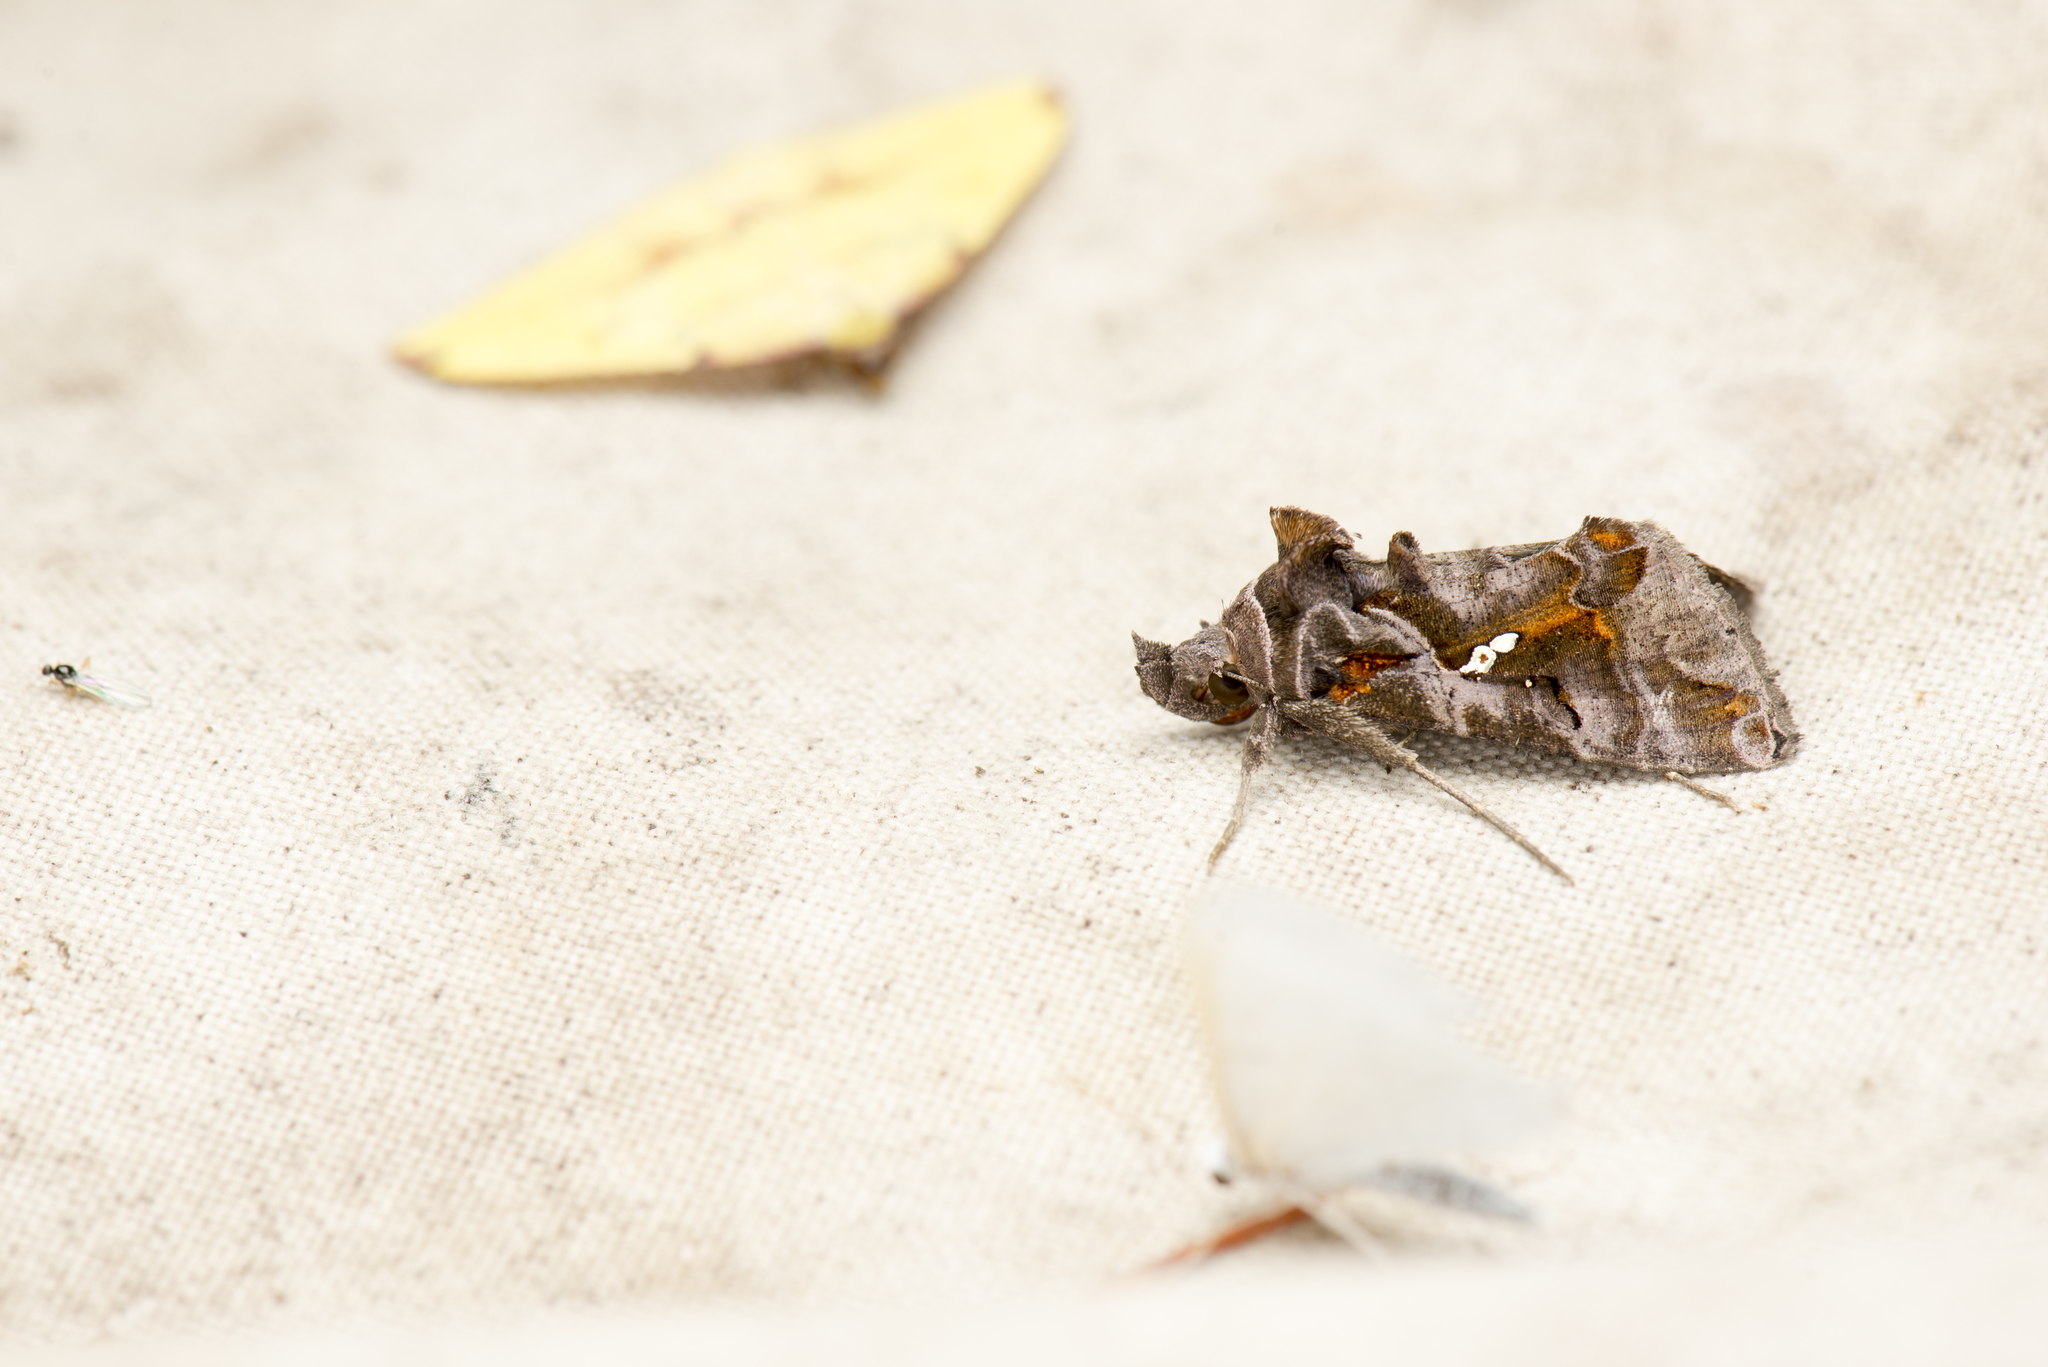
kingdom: Animalia
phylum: Arthropoda
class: Insecta
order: Lepidoptera
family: Noctuidae
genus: Plusiopalpa
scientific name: Plusiopalpa adrasta
